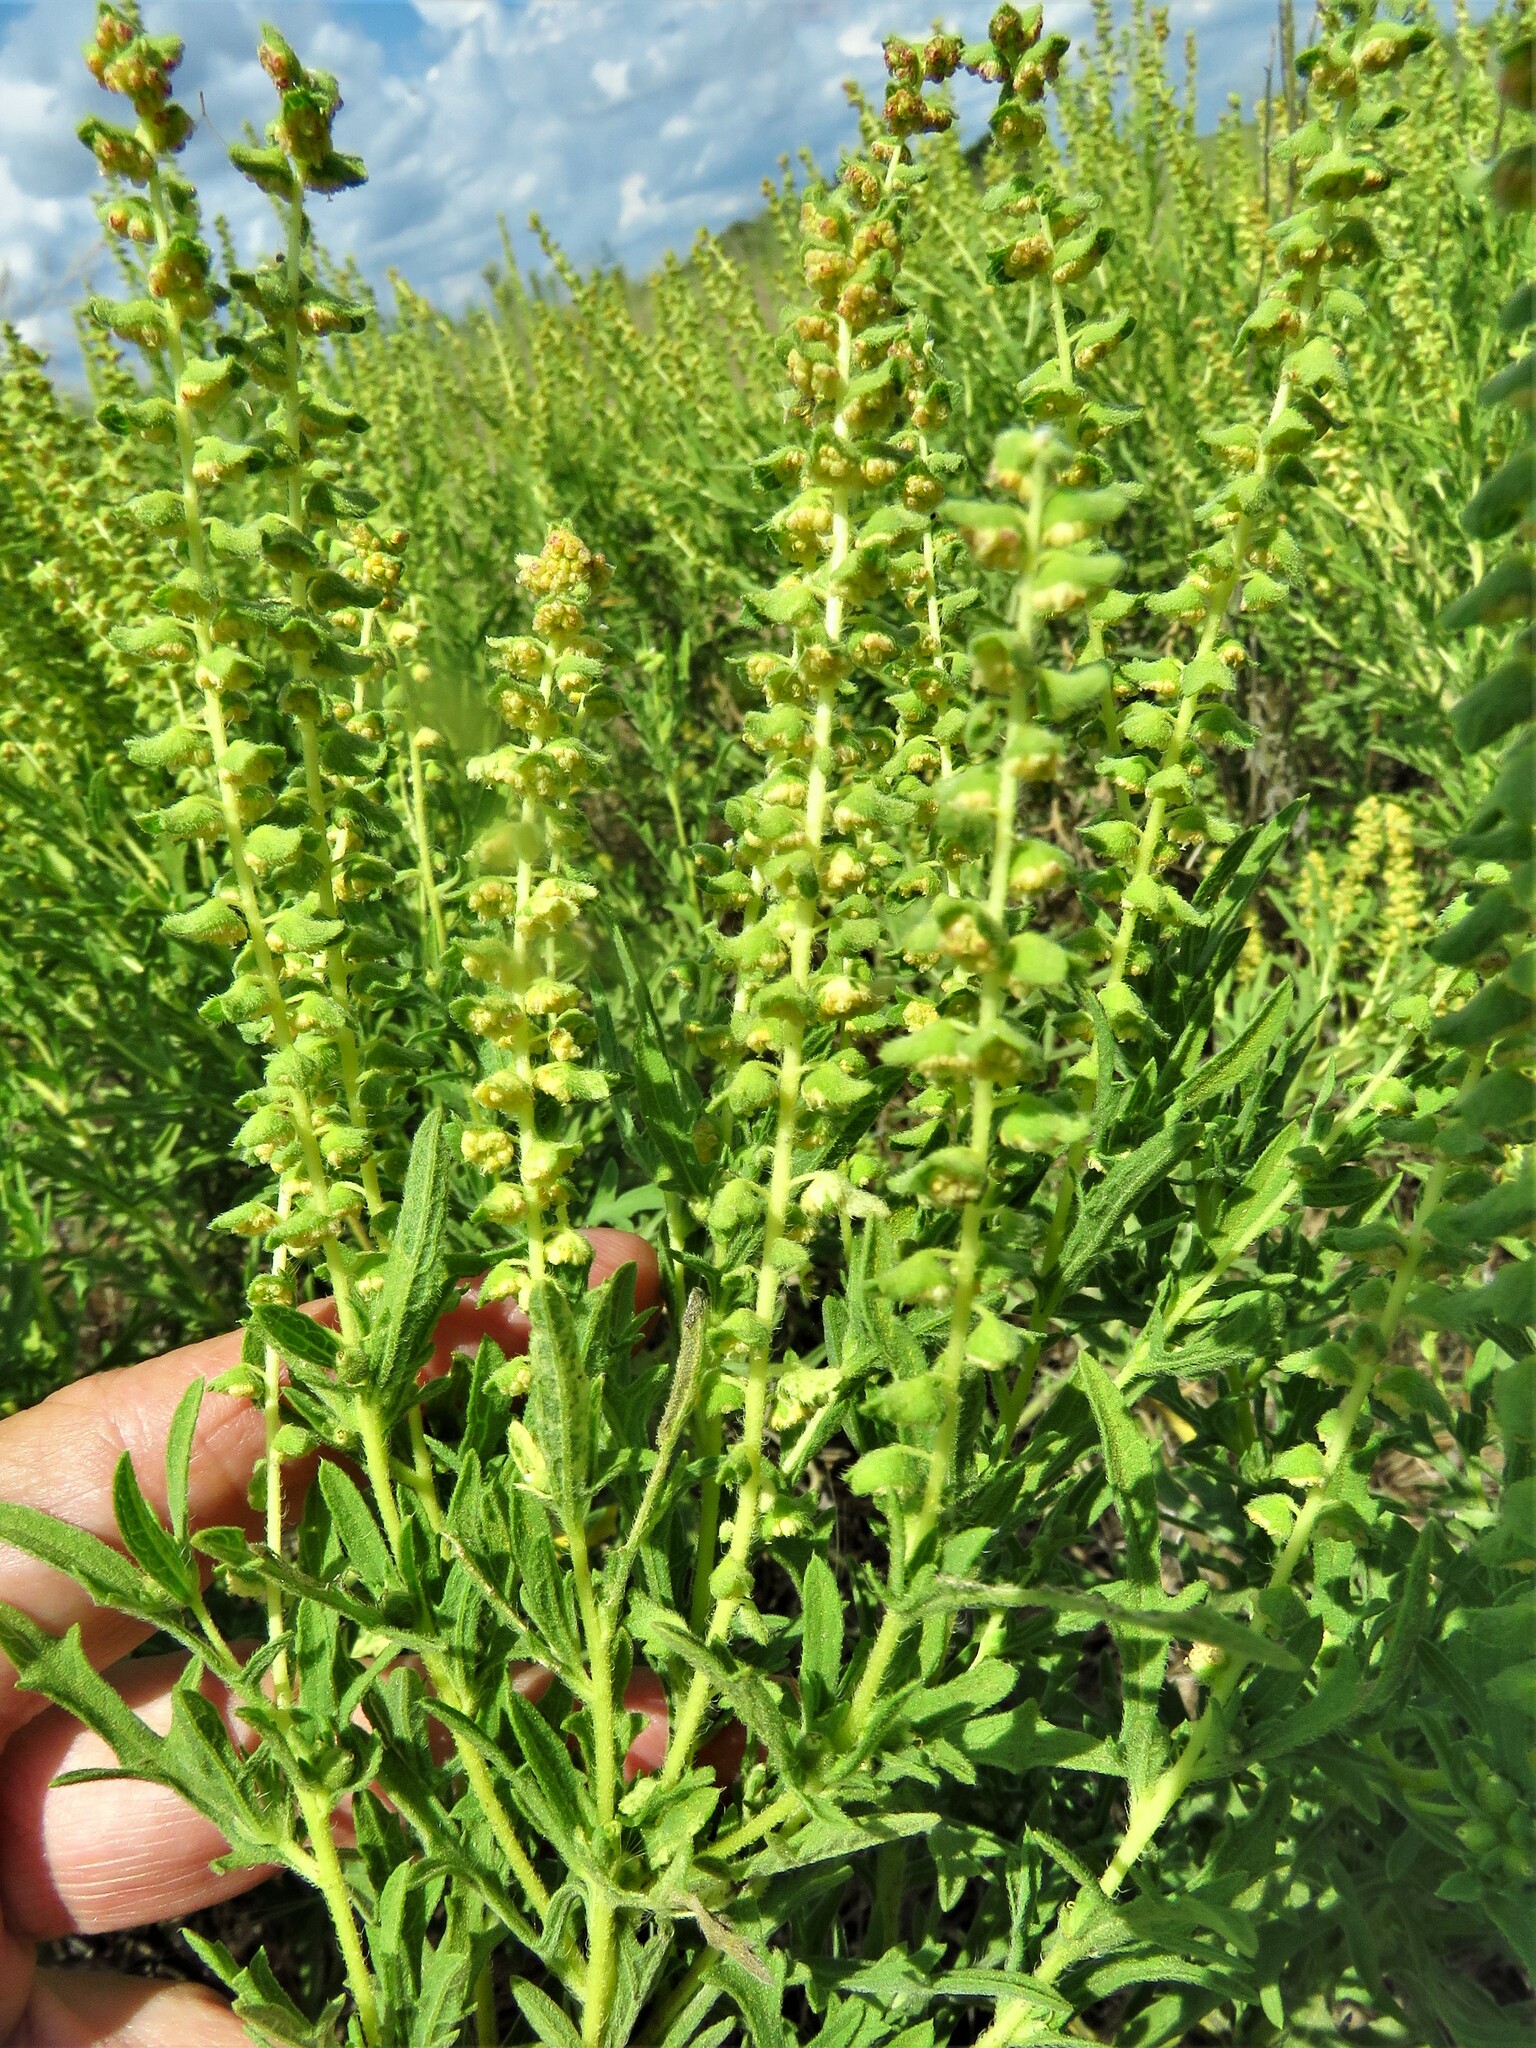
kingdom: Plantae
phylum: Tracheophyta
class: Magnoliopsida
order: Asterales
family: Asteraceae
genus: Ambrosia
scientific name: Ambrosia psilostachya
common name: Perennial ragweed
